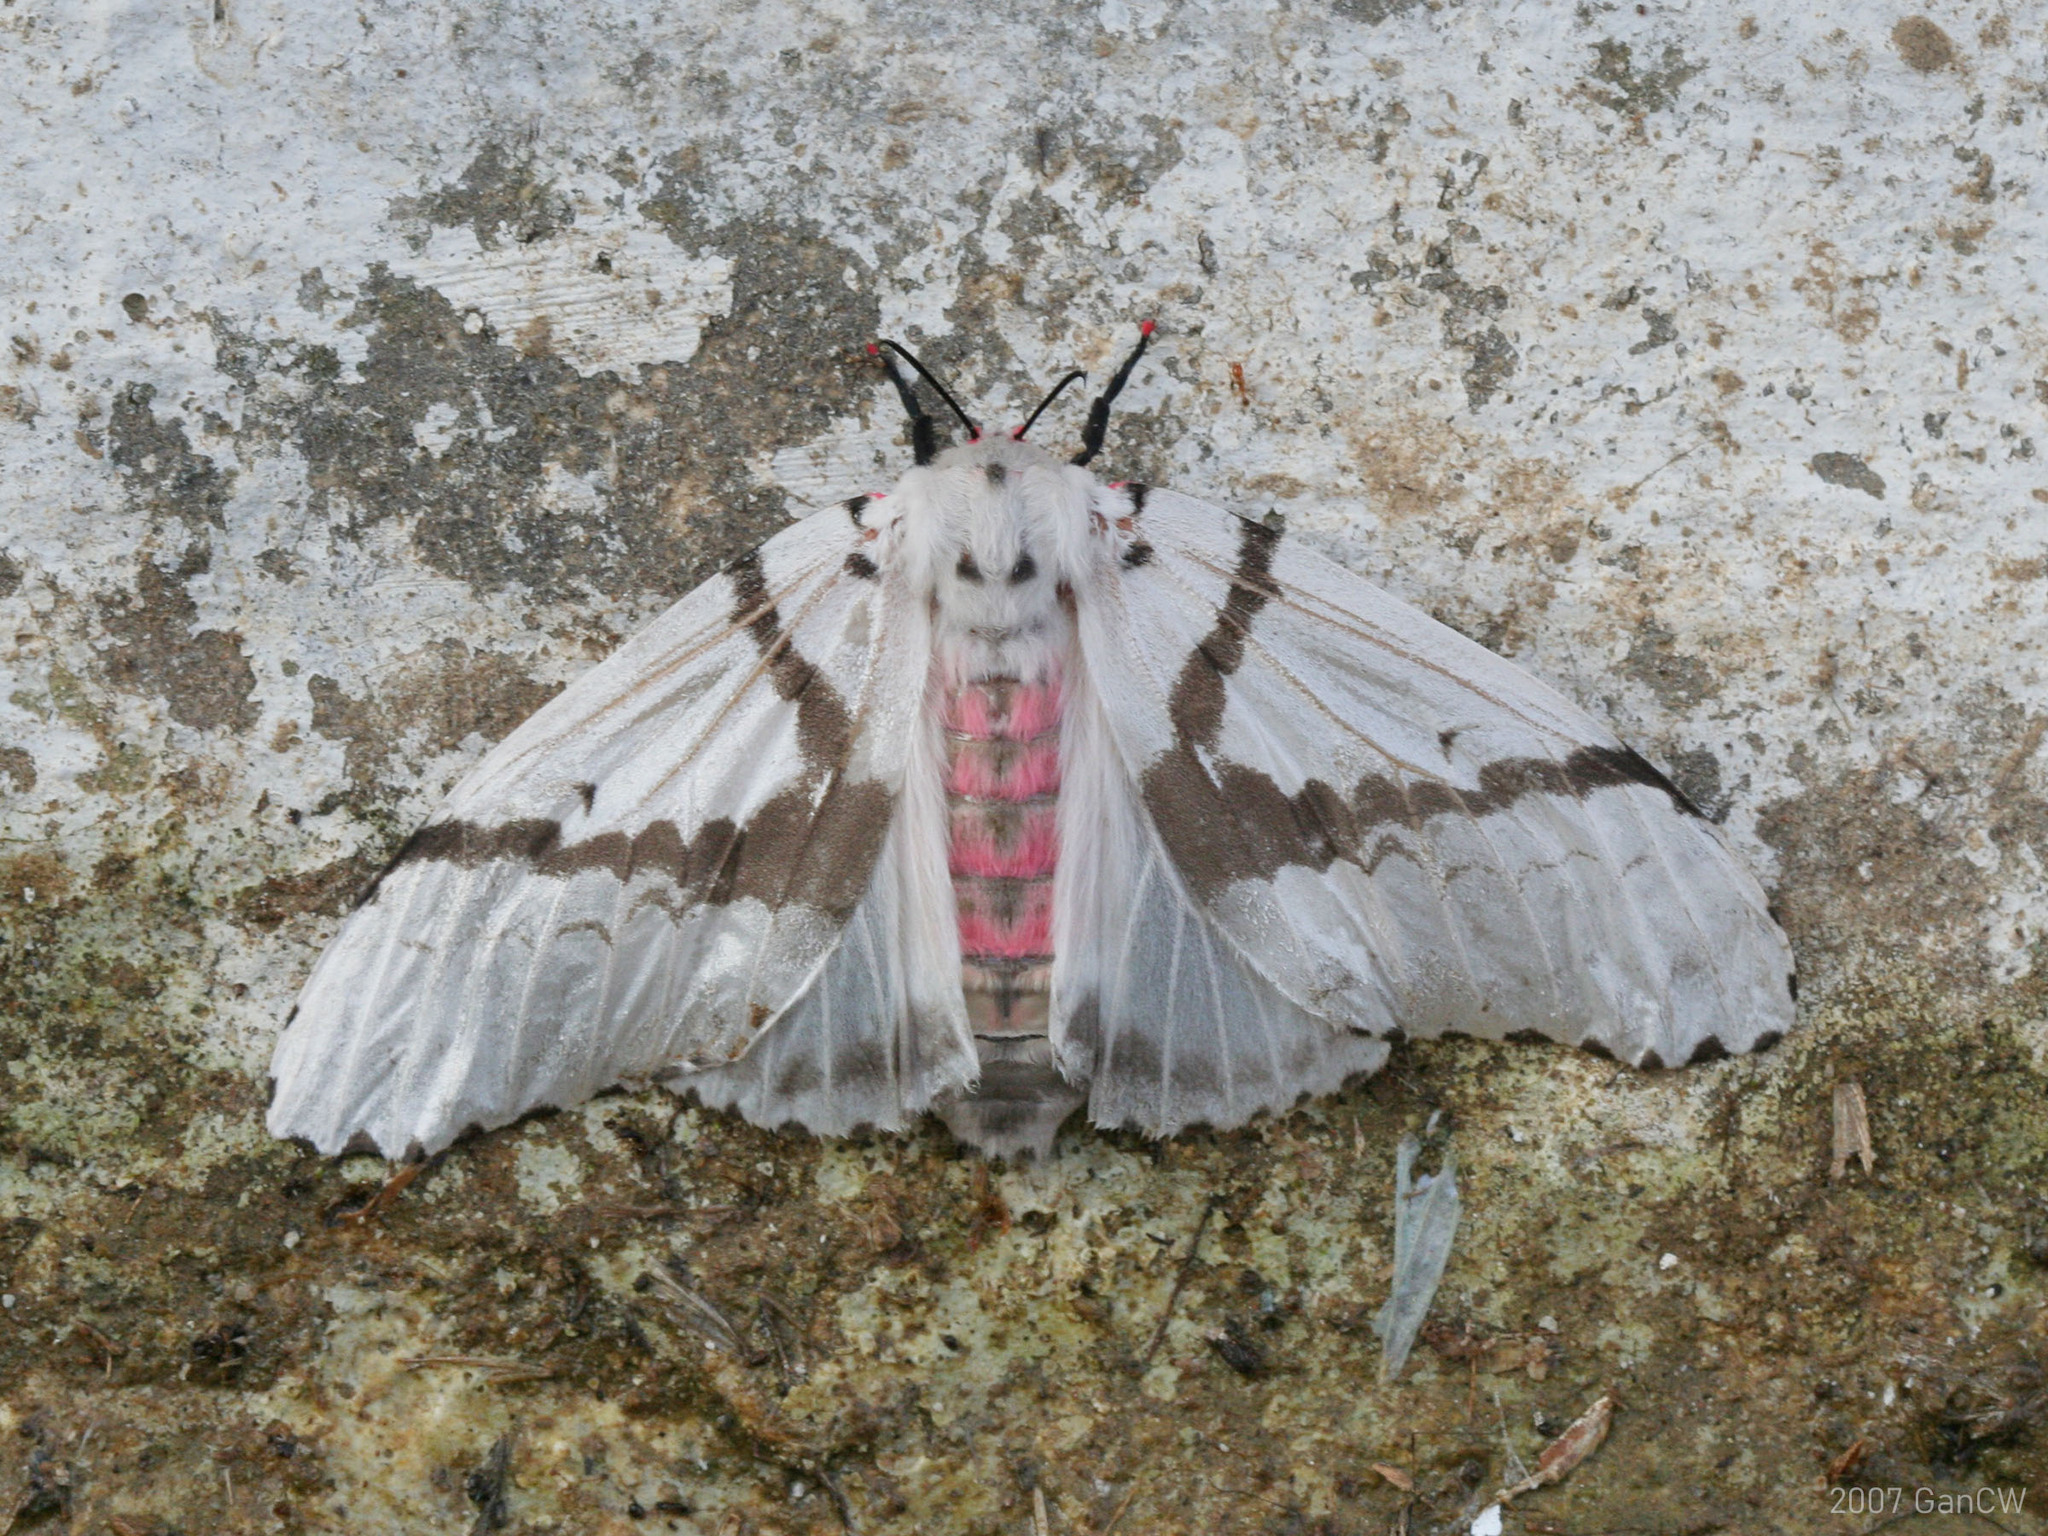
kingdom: Animalia
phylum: Arthropoda
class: Insecta
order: Lepidoptera
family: Erebidae
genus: Lymantria
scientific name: Lymantria marginalis
